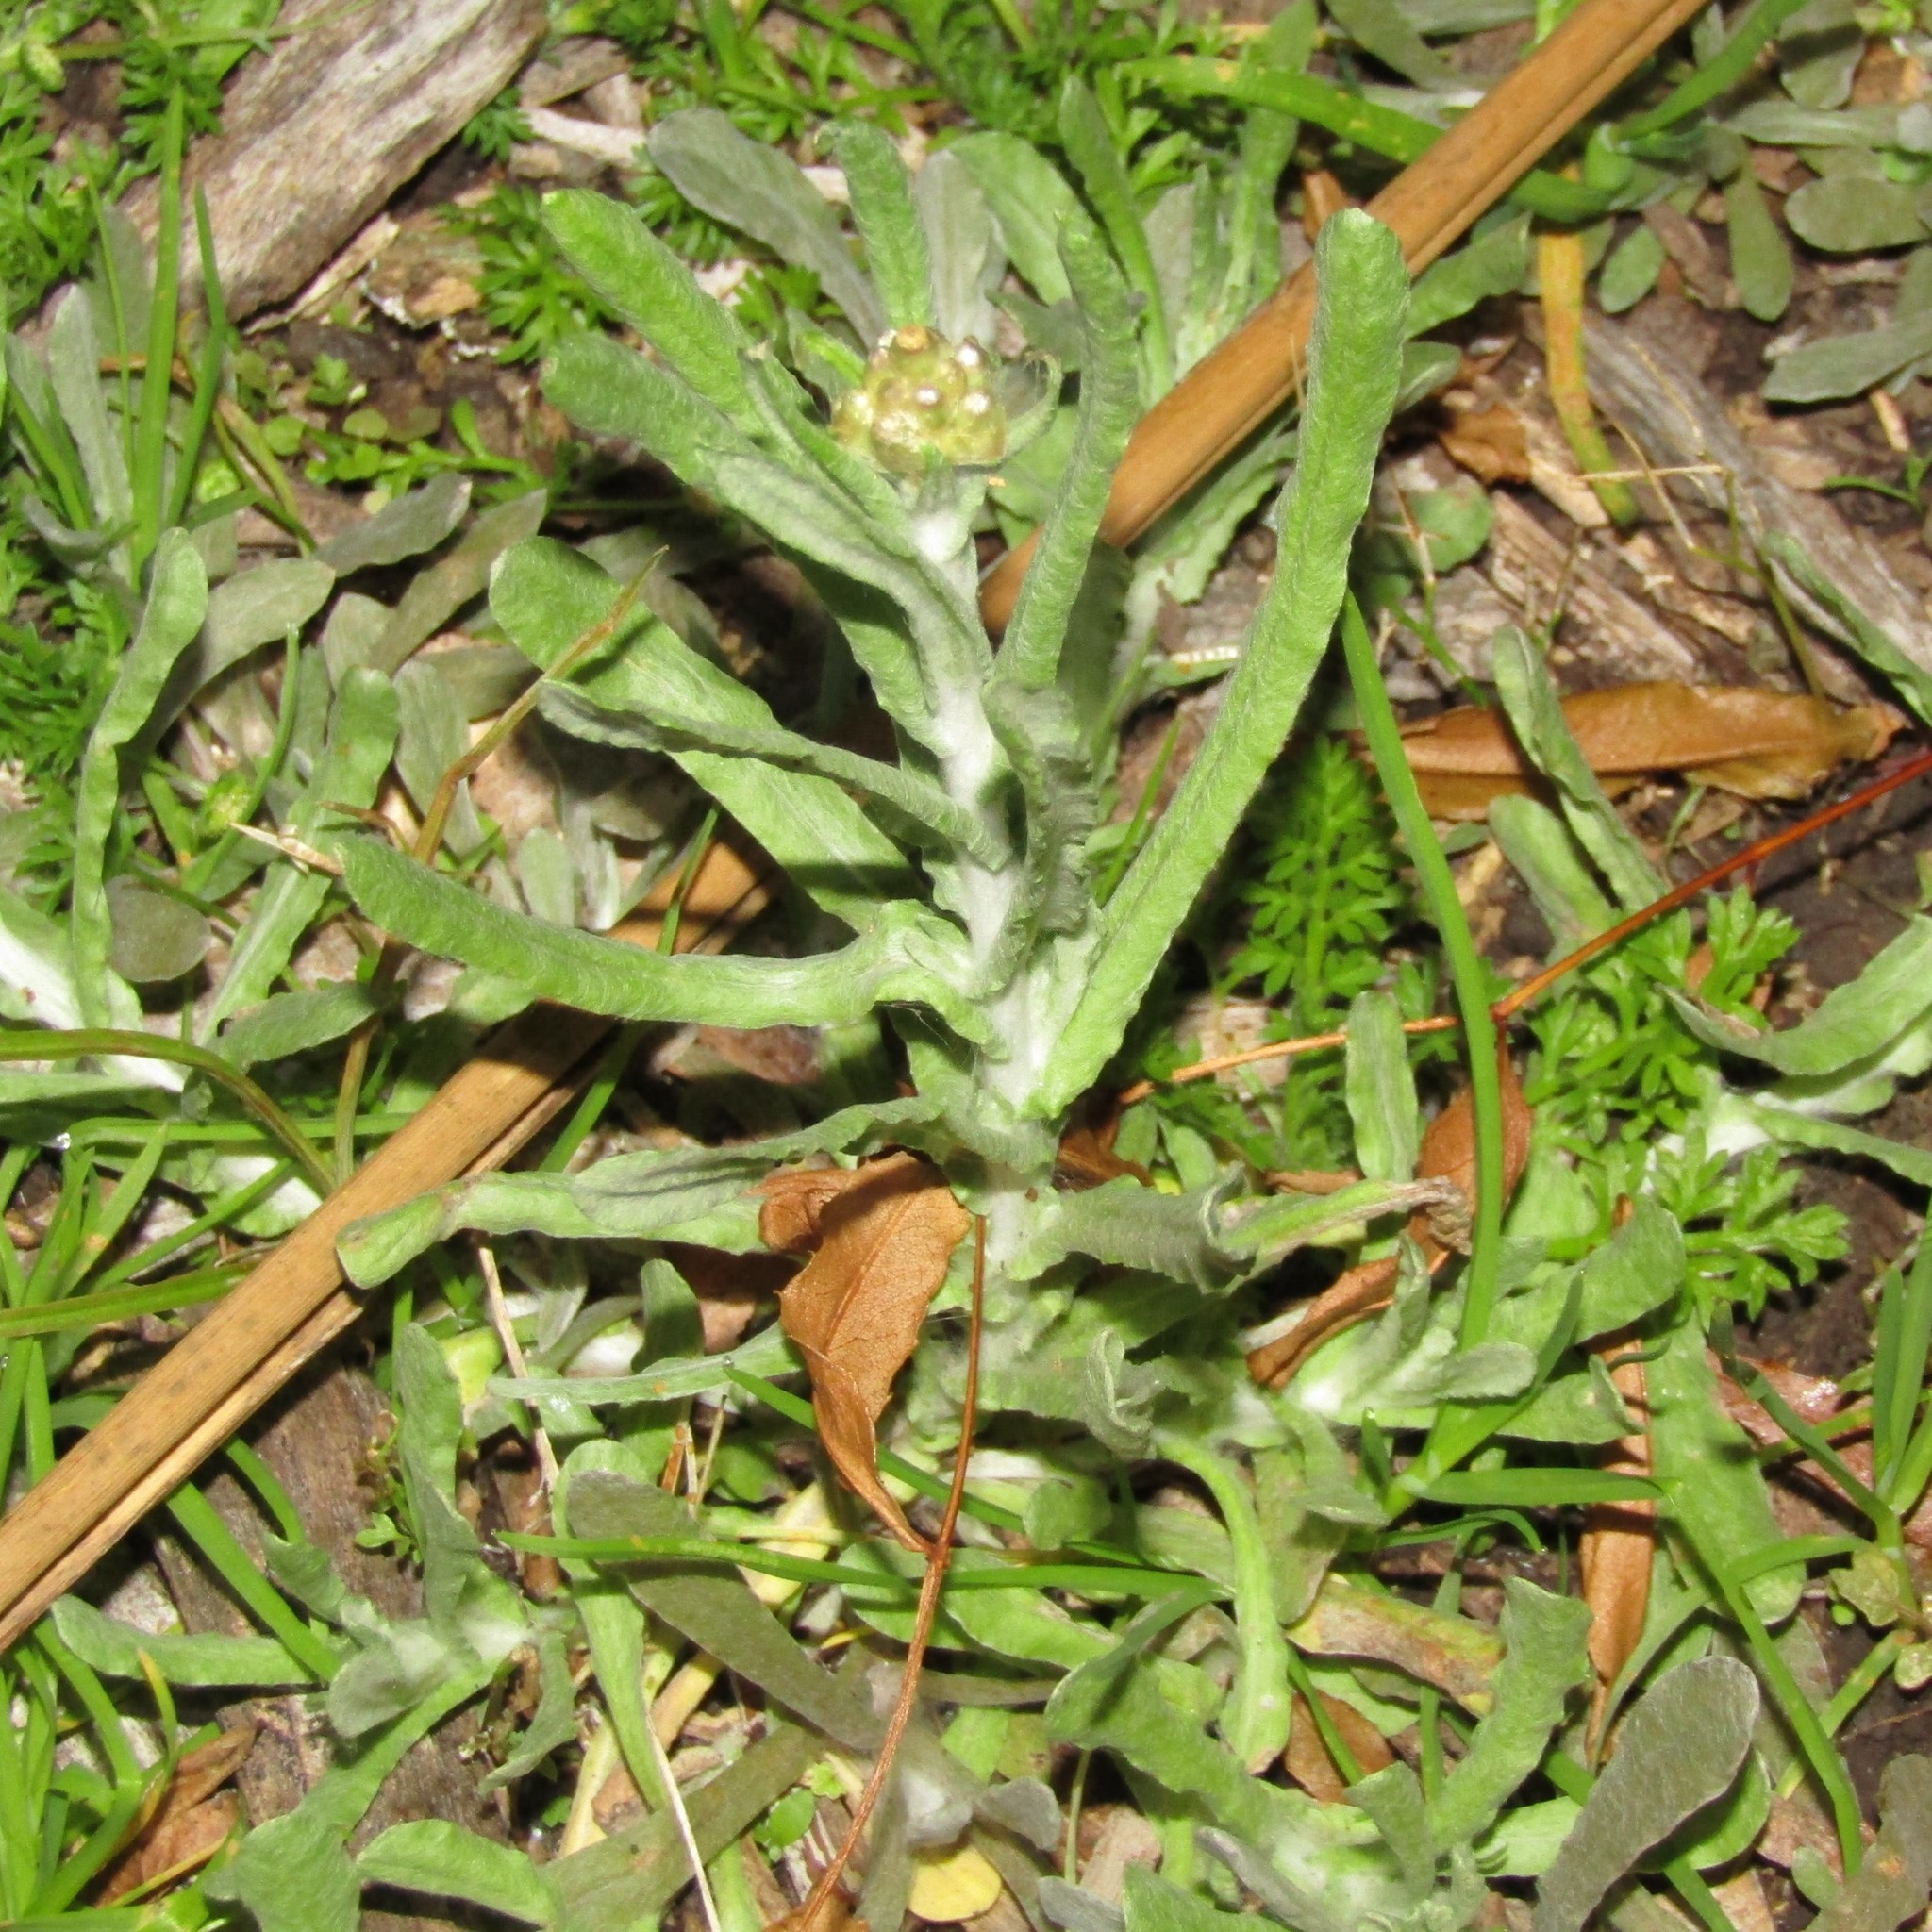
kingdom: Plantae
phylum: Tracheophyta
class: Magnoliopsida
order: Asterales
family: Asteraceae
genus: Helichrysum
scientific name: Helichrysum luteoalbum
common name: Daisy
